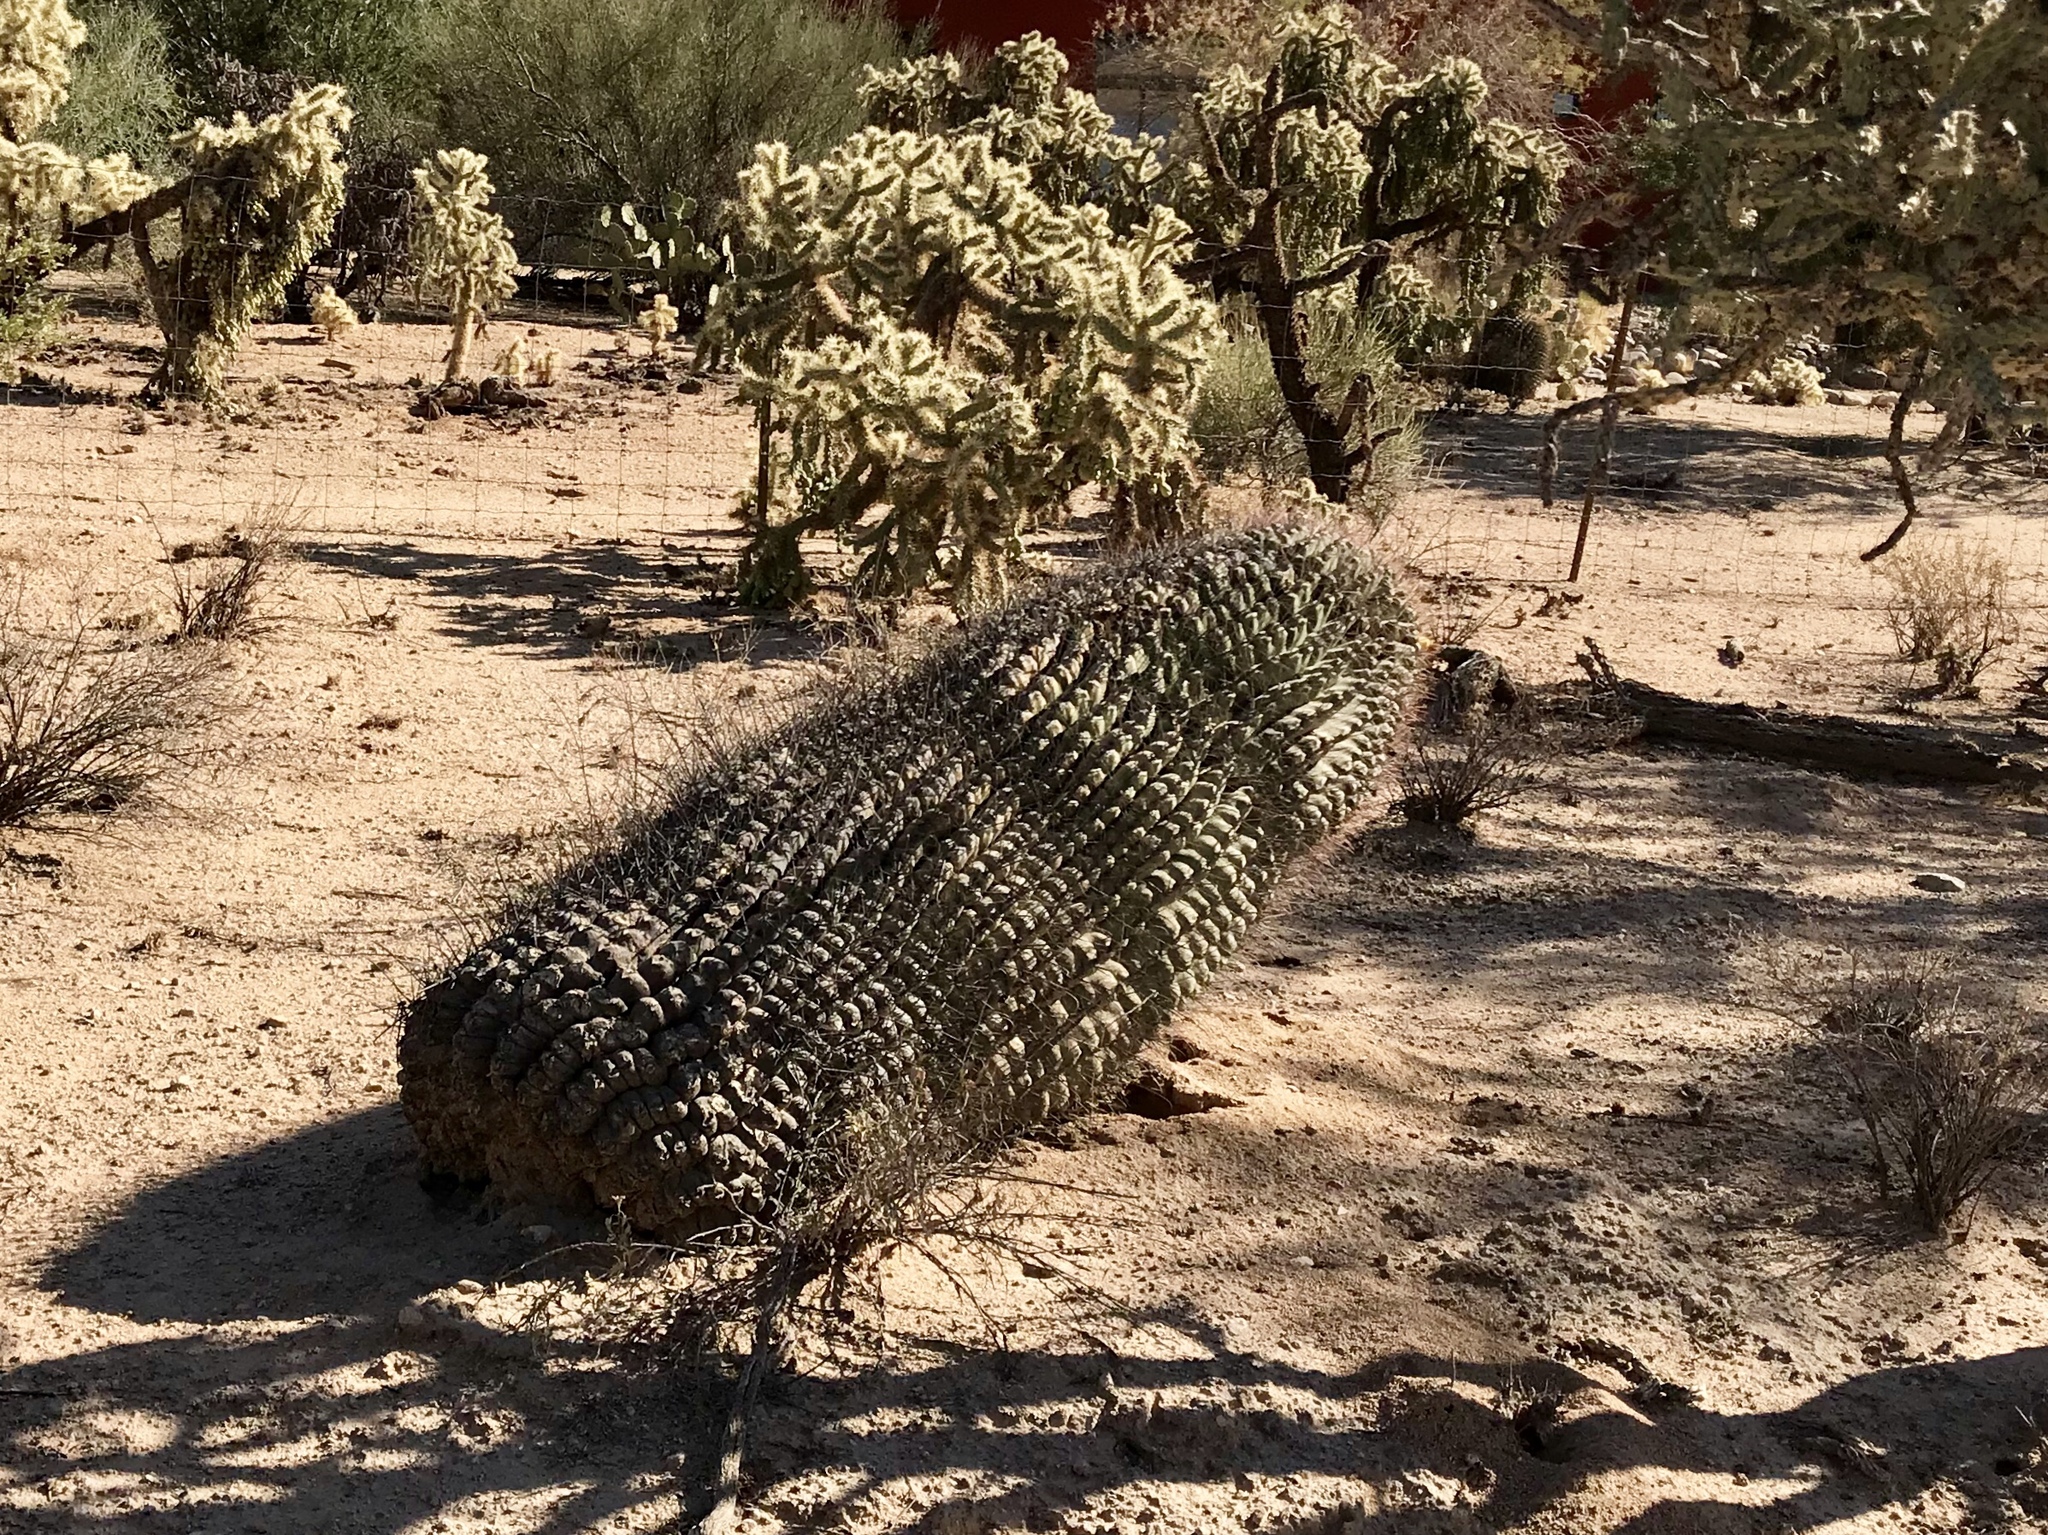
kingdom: Plantae
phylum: Tracheophyta
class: Magnoliopsida
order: Caryophyllales
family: Cactaceae
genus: Ferocactus
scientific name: Ferocactus wislizeni
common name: Candy barrel cactus
